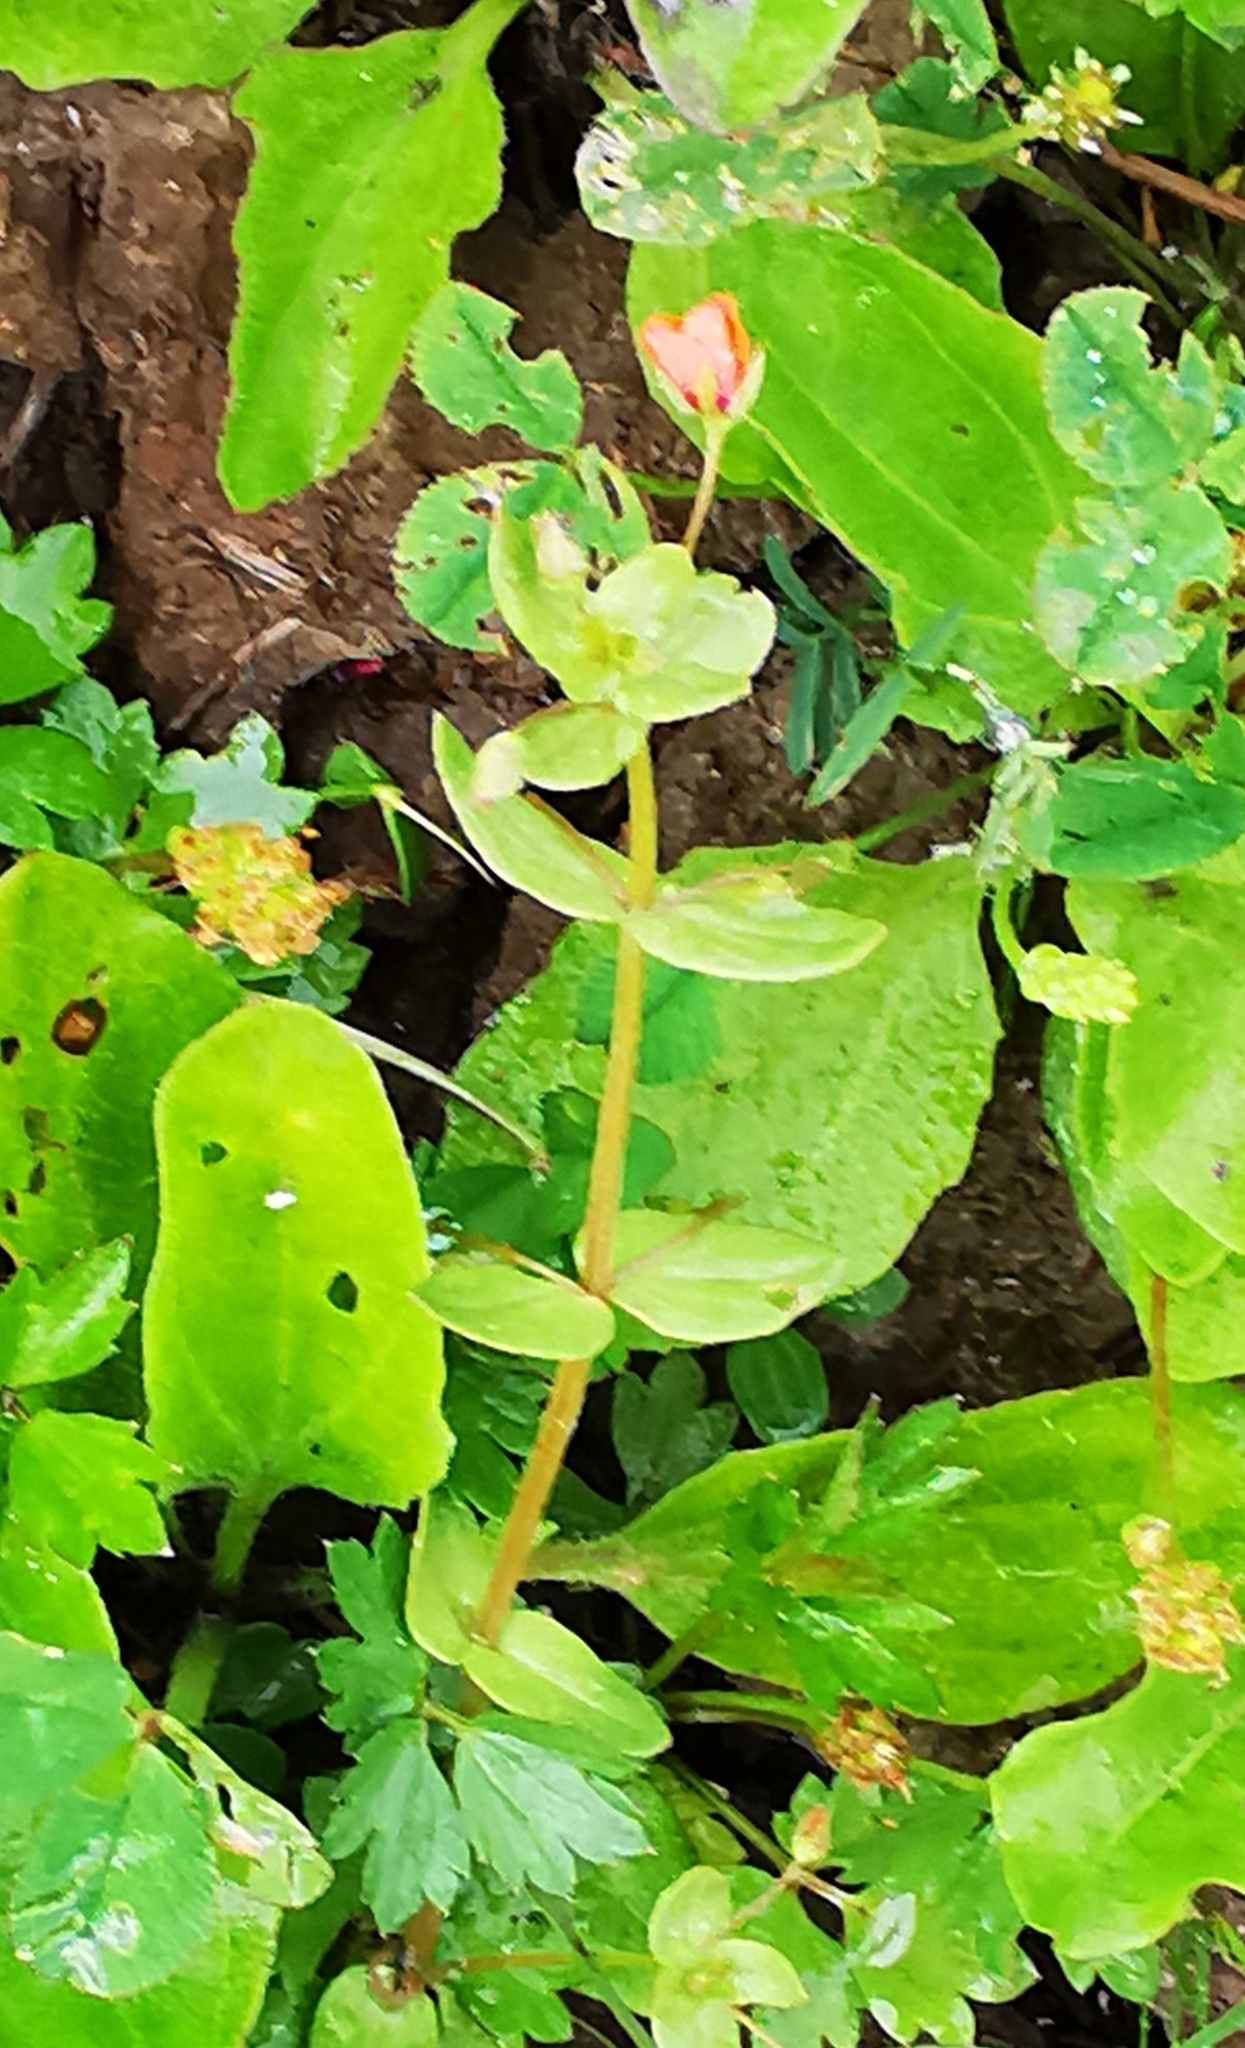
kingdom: Plantae
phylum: Tracheophyta
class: Magnoliopsida
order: Ericales
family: Primulaceae
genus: Lysimachia
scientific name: Lysimachia arvensis
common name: Scarlet pimpernel
